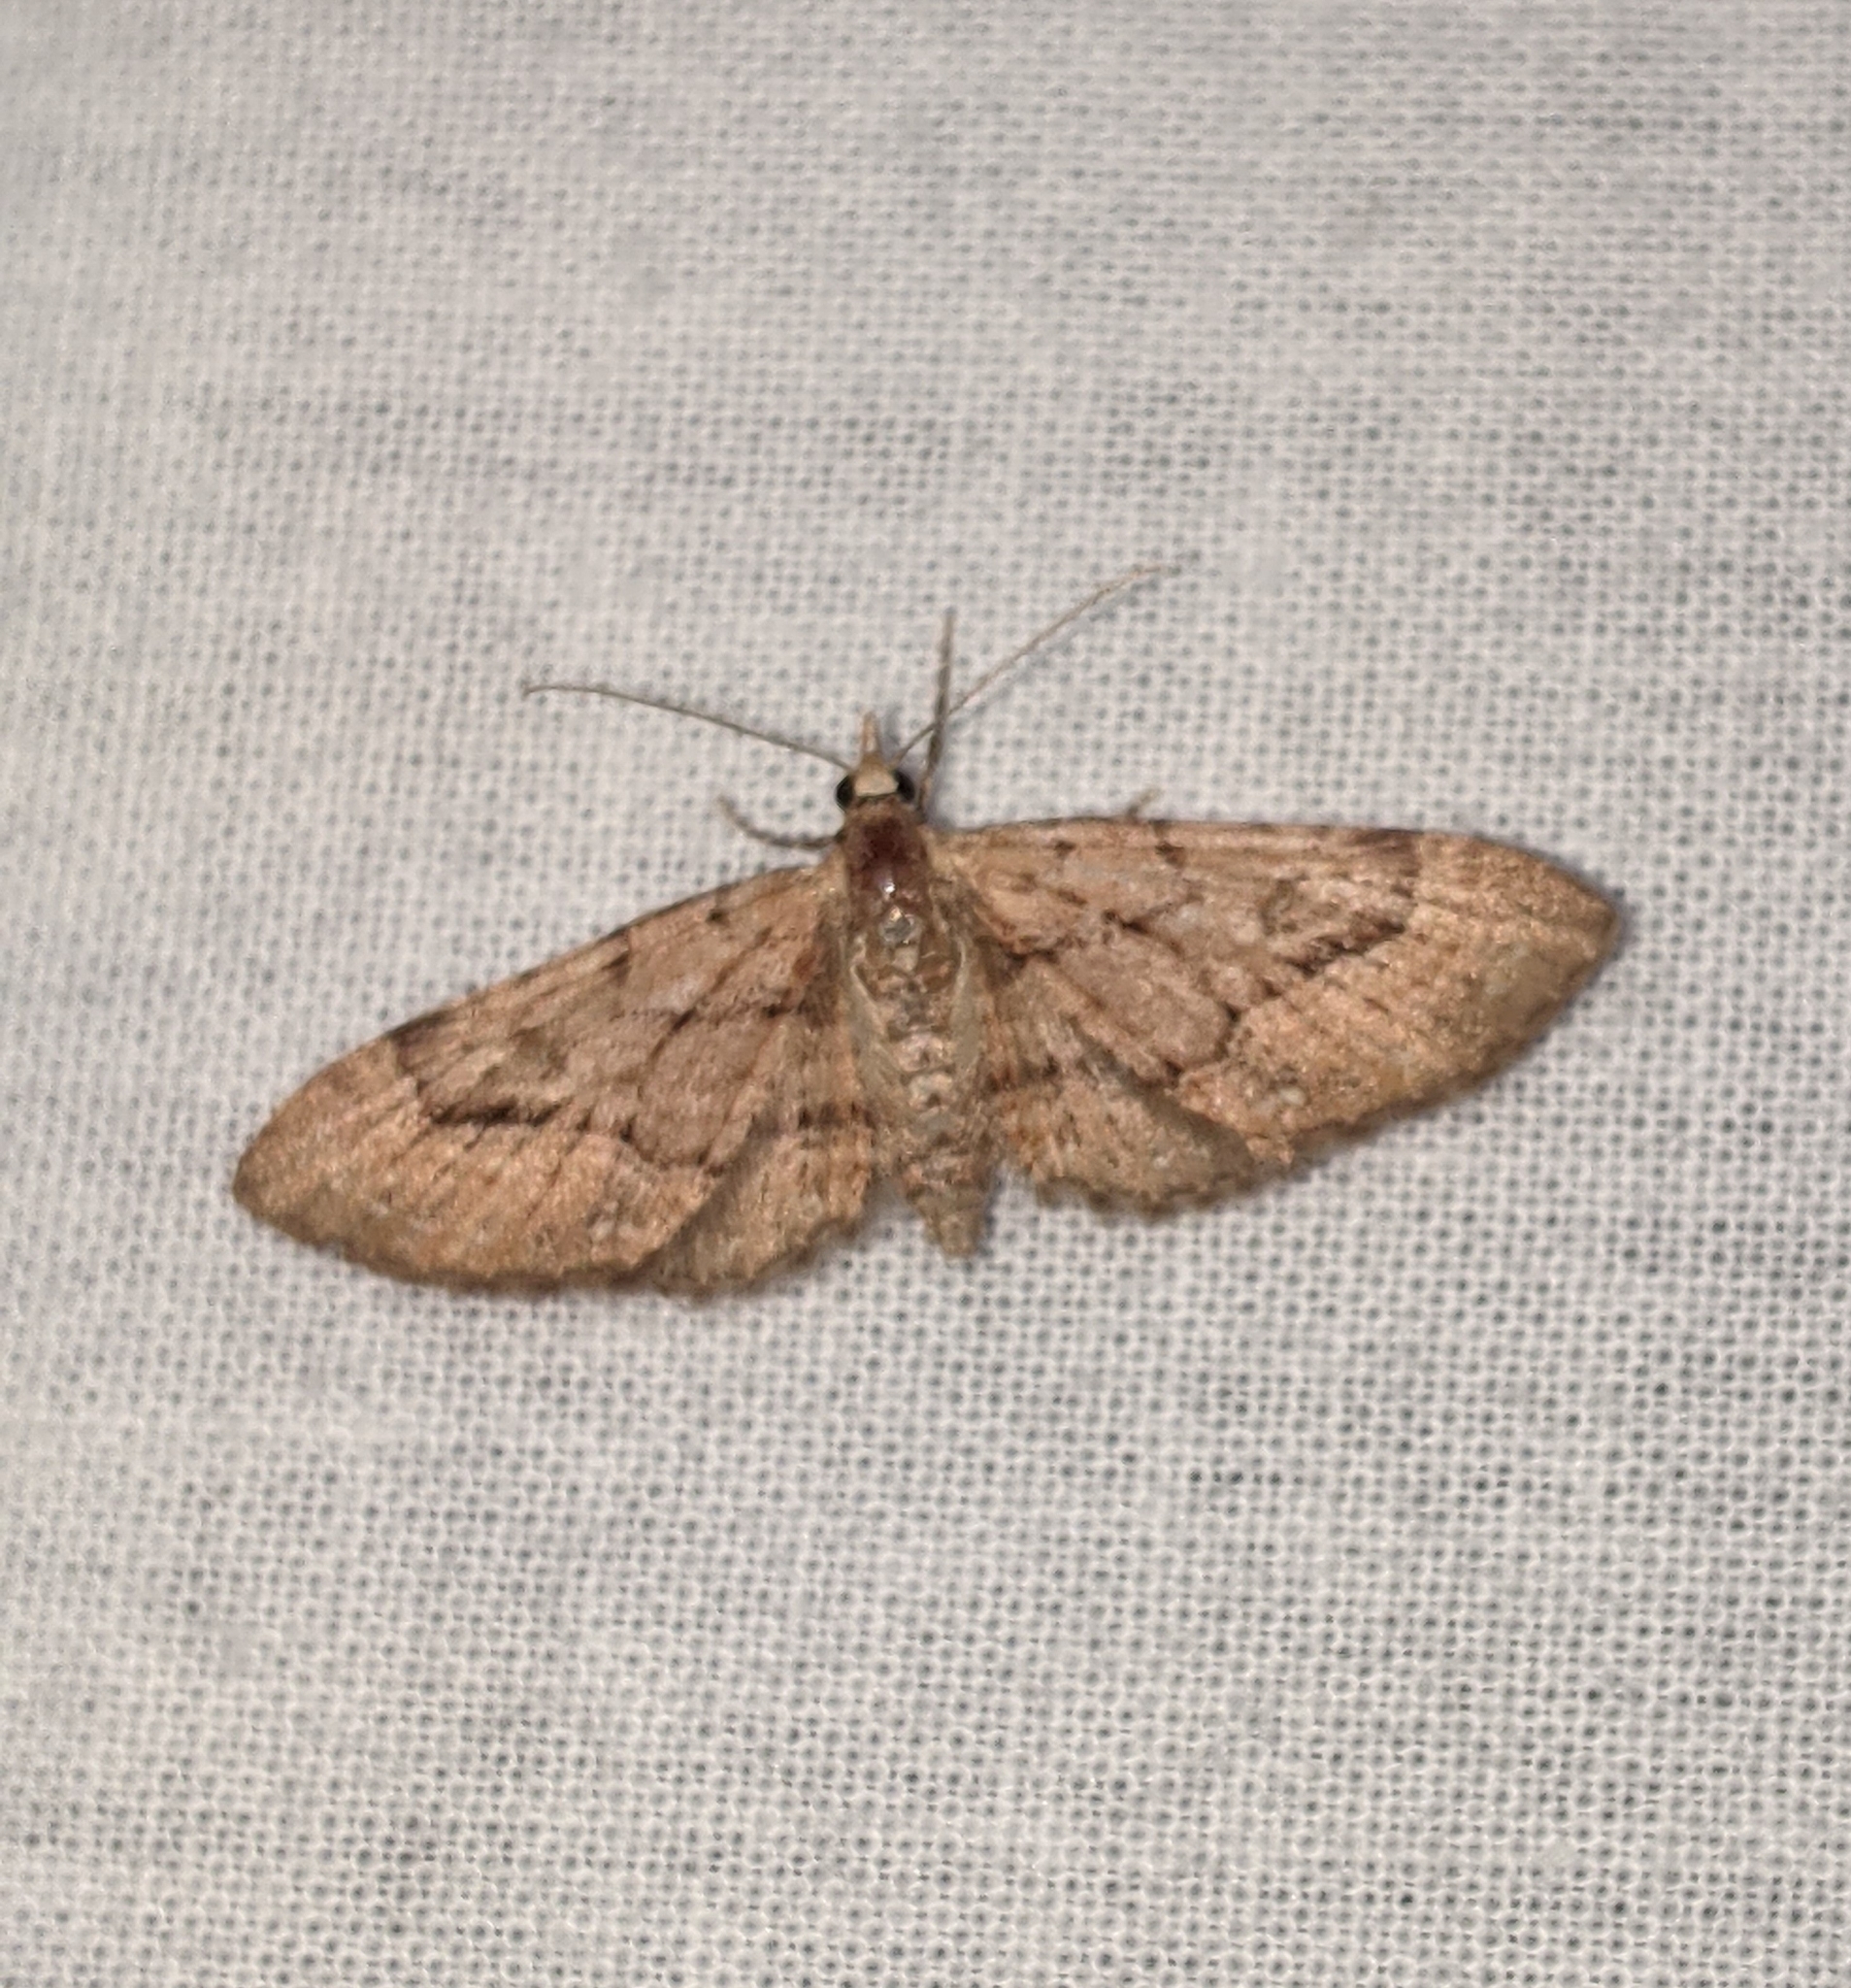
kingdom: Animalia
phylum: Arthropoda
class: Insecta
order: Lepidoptera
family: Geometridae
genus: Eupithecia
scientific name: Eupithecia unicolor
